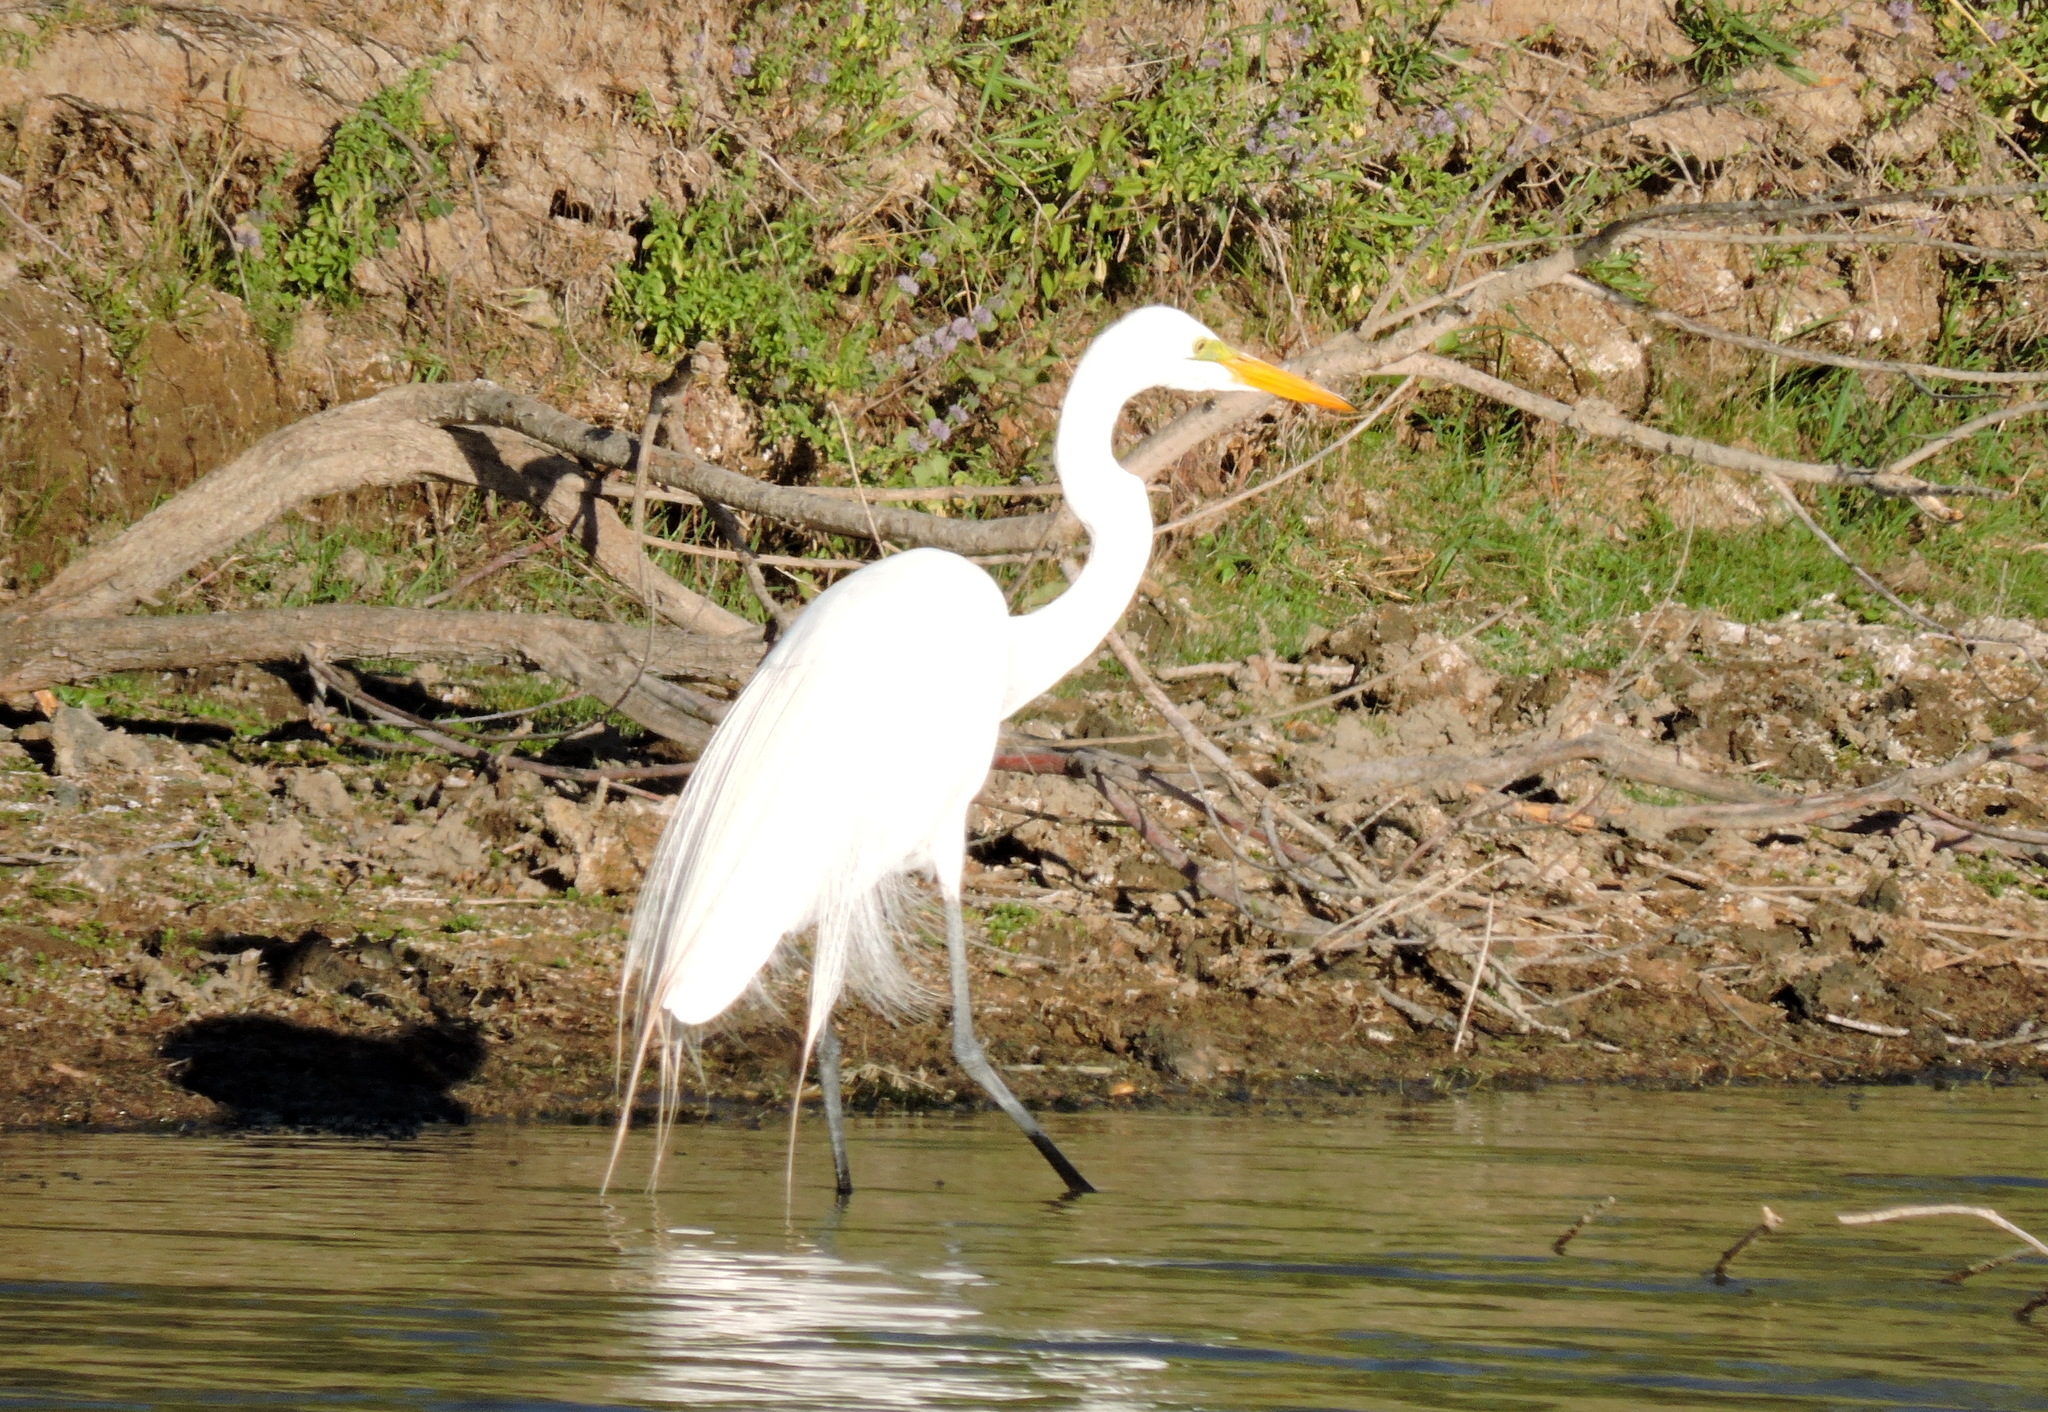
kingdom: Animalia
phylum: Chordata
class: Aves
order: Pelecaniformes
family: Ardeidae
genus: Ardea
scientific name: Ardea alba
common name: Great egret
